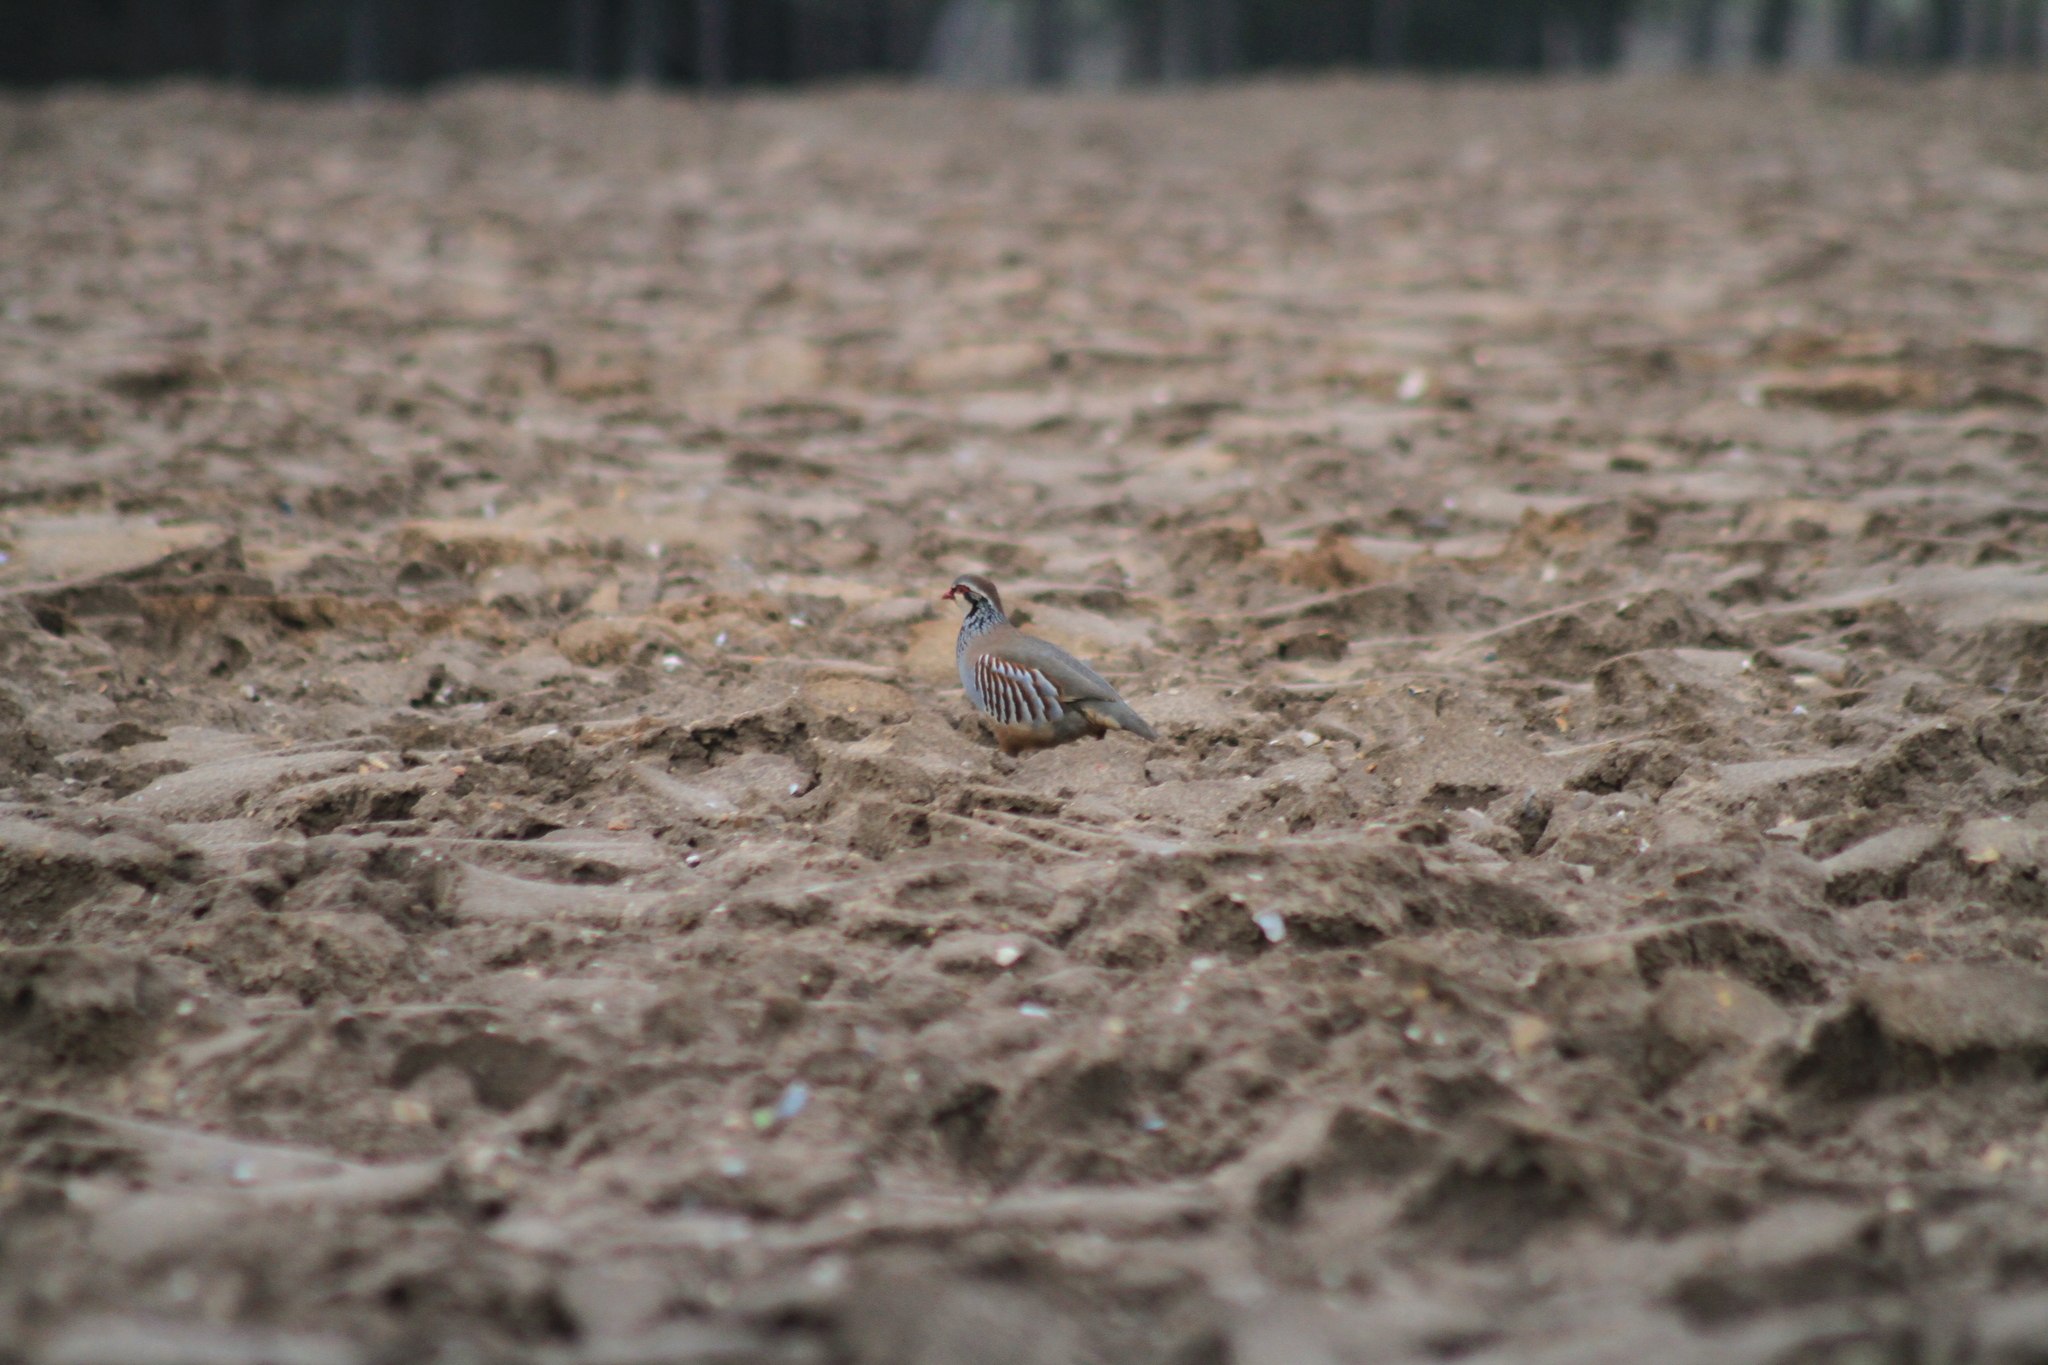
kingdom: Animalia
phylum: Chordata
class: Aves
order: Galliformes
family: Phasianidae
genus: Alectoris
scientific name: Alectoris rufa
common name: Red-legged partridge
